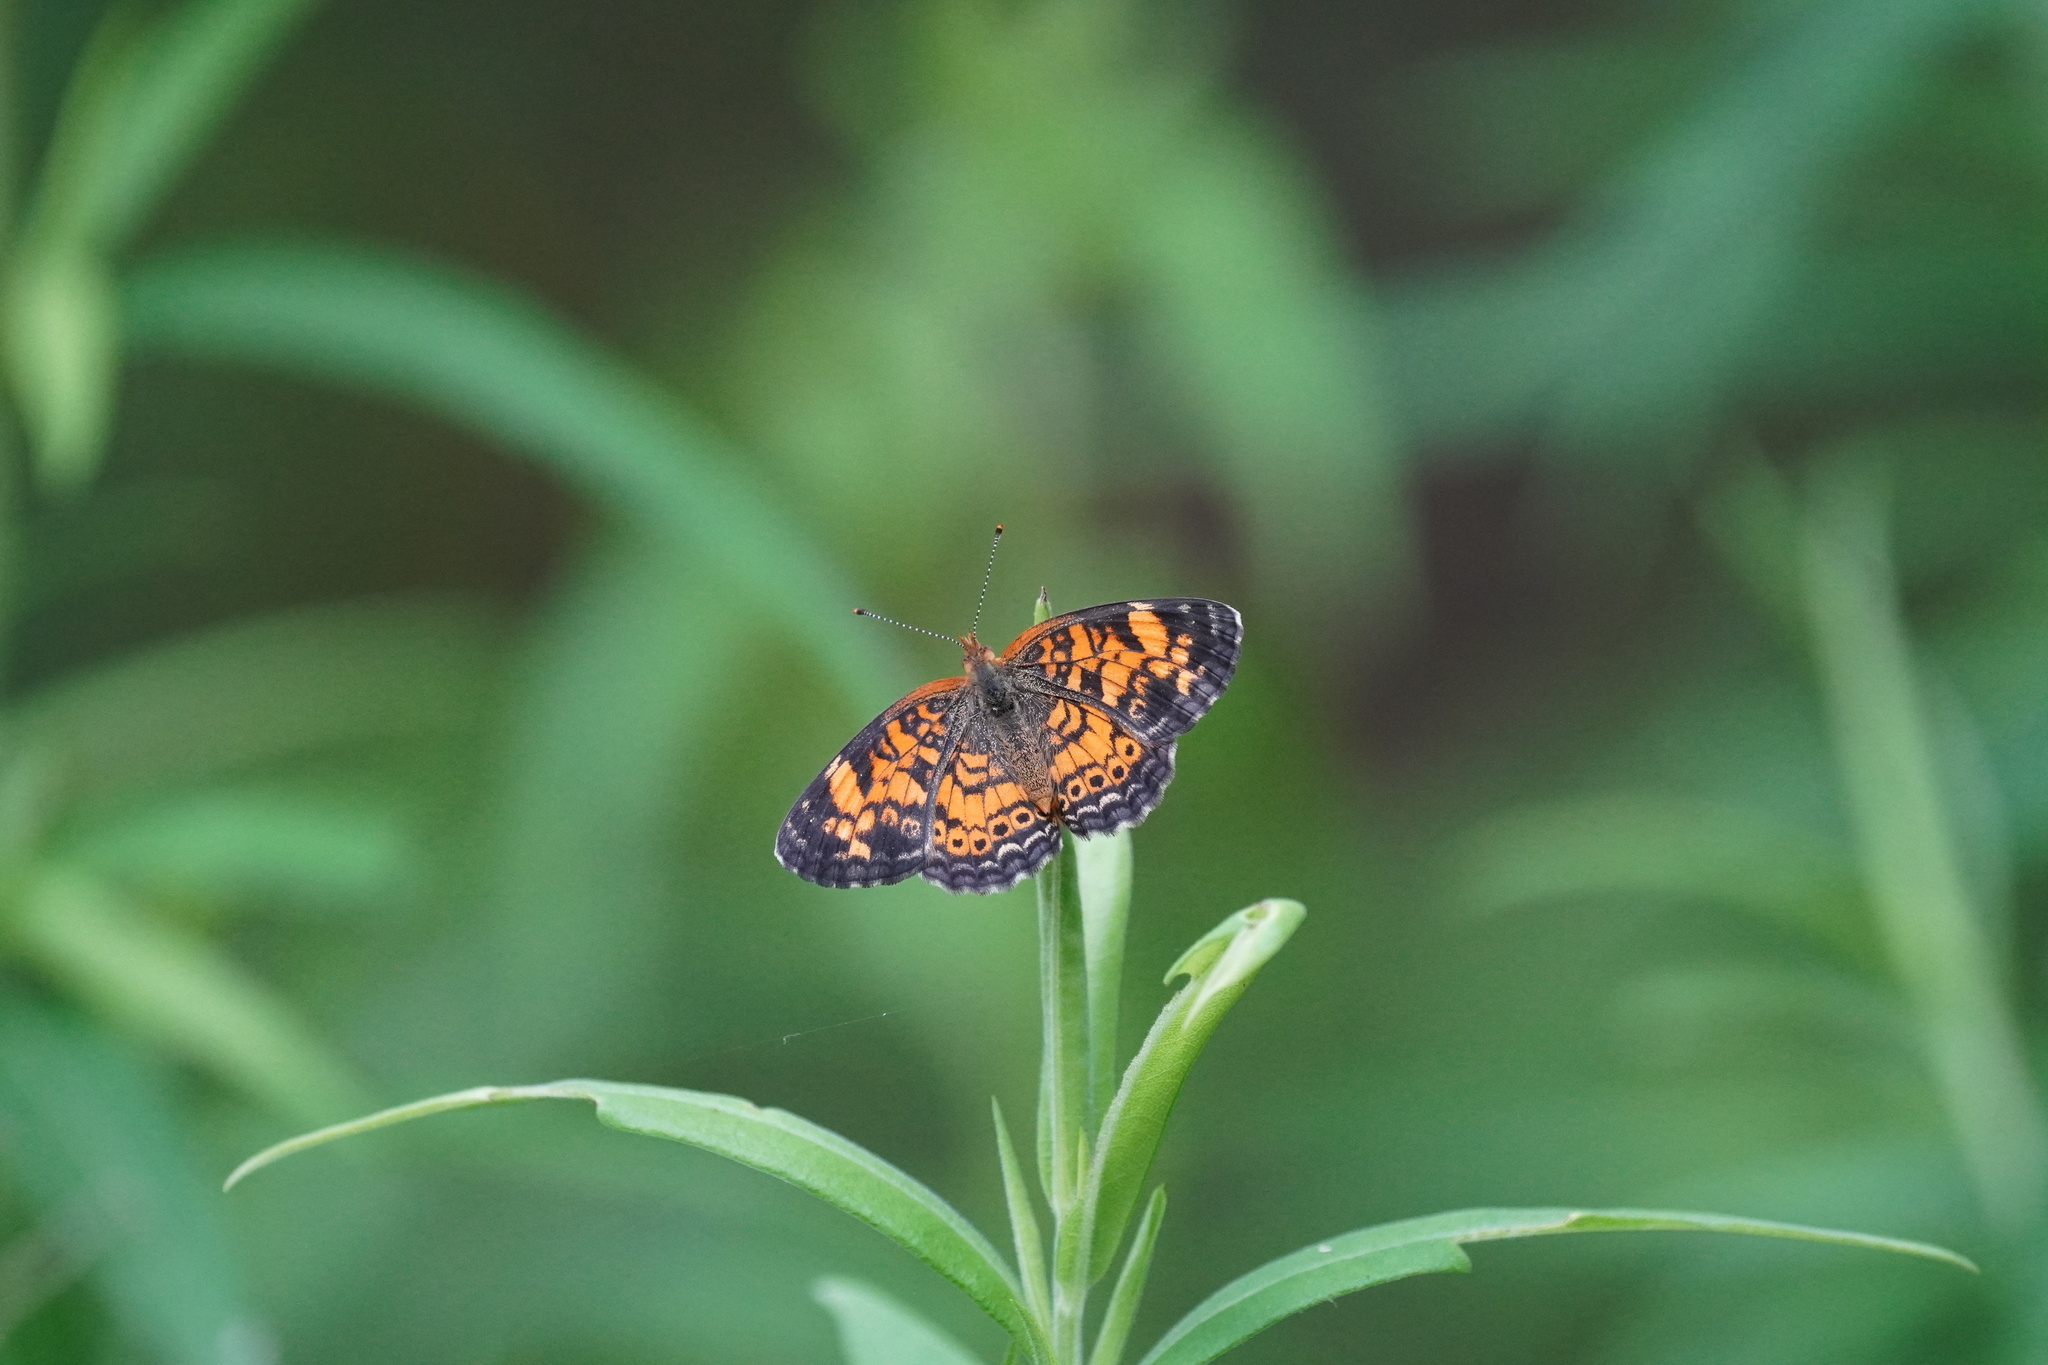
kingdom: Animalia
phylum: Arthropoda
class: Insecta
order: Lepidoptera
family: Nymphalidae
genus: Phyciodes
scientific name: Phyciodes tharos
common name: Pearl crescent
